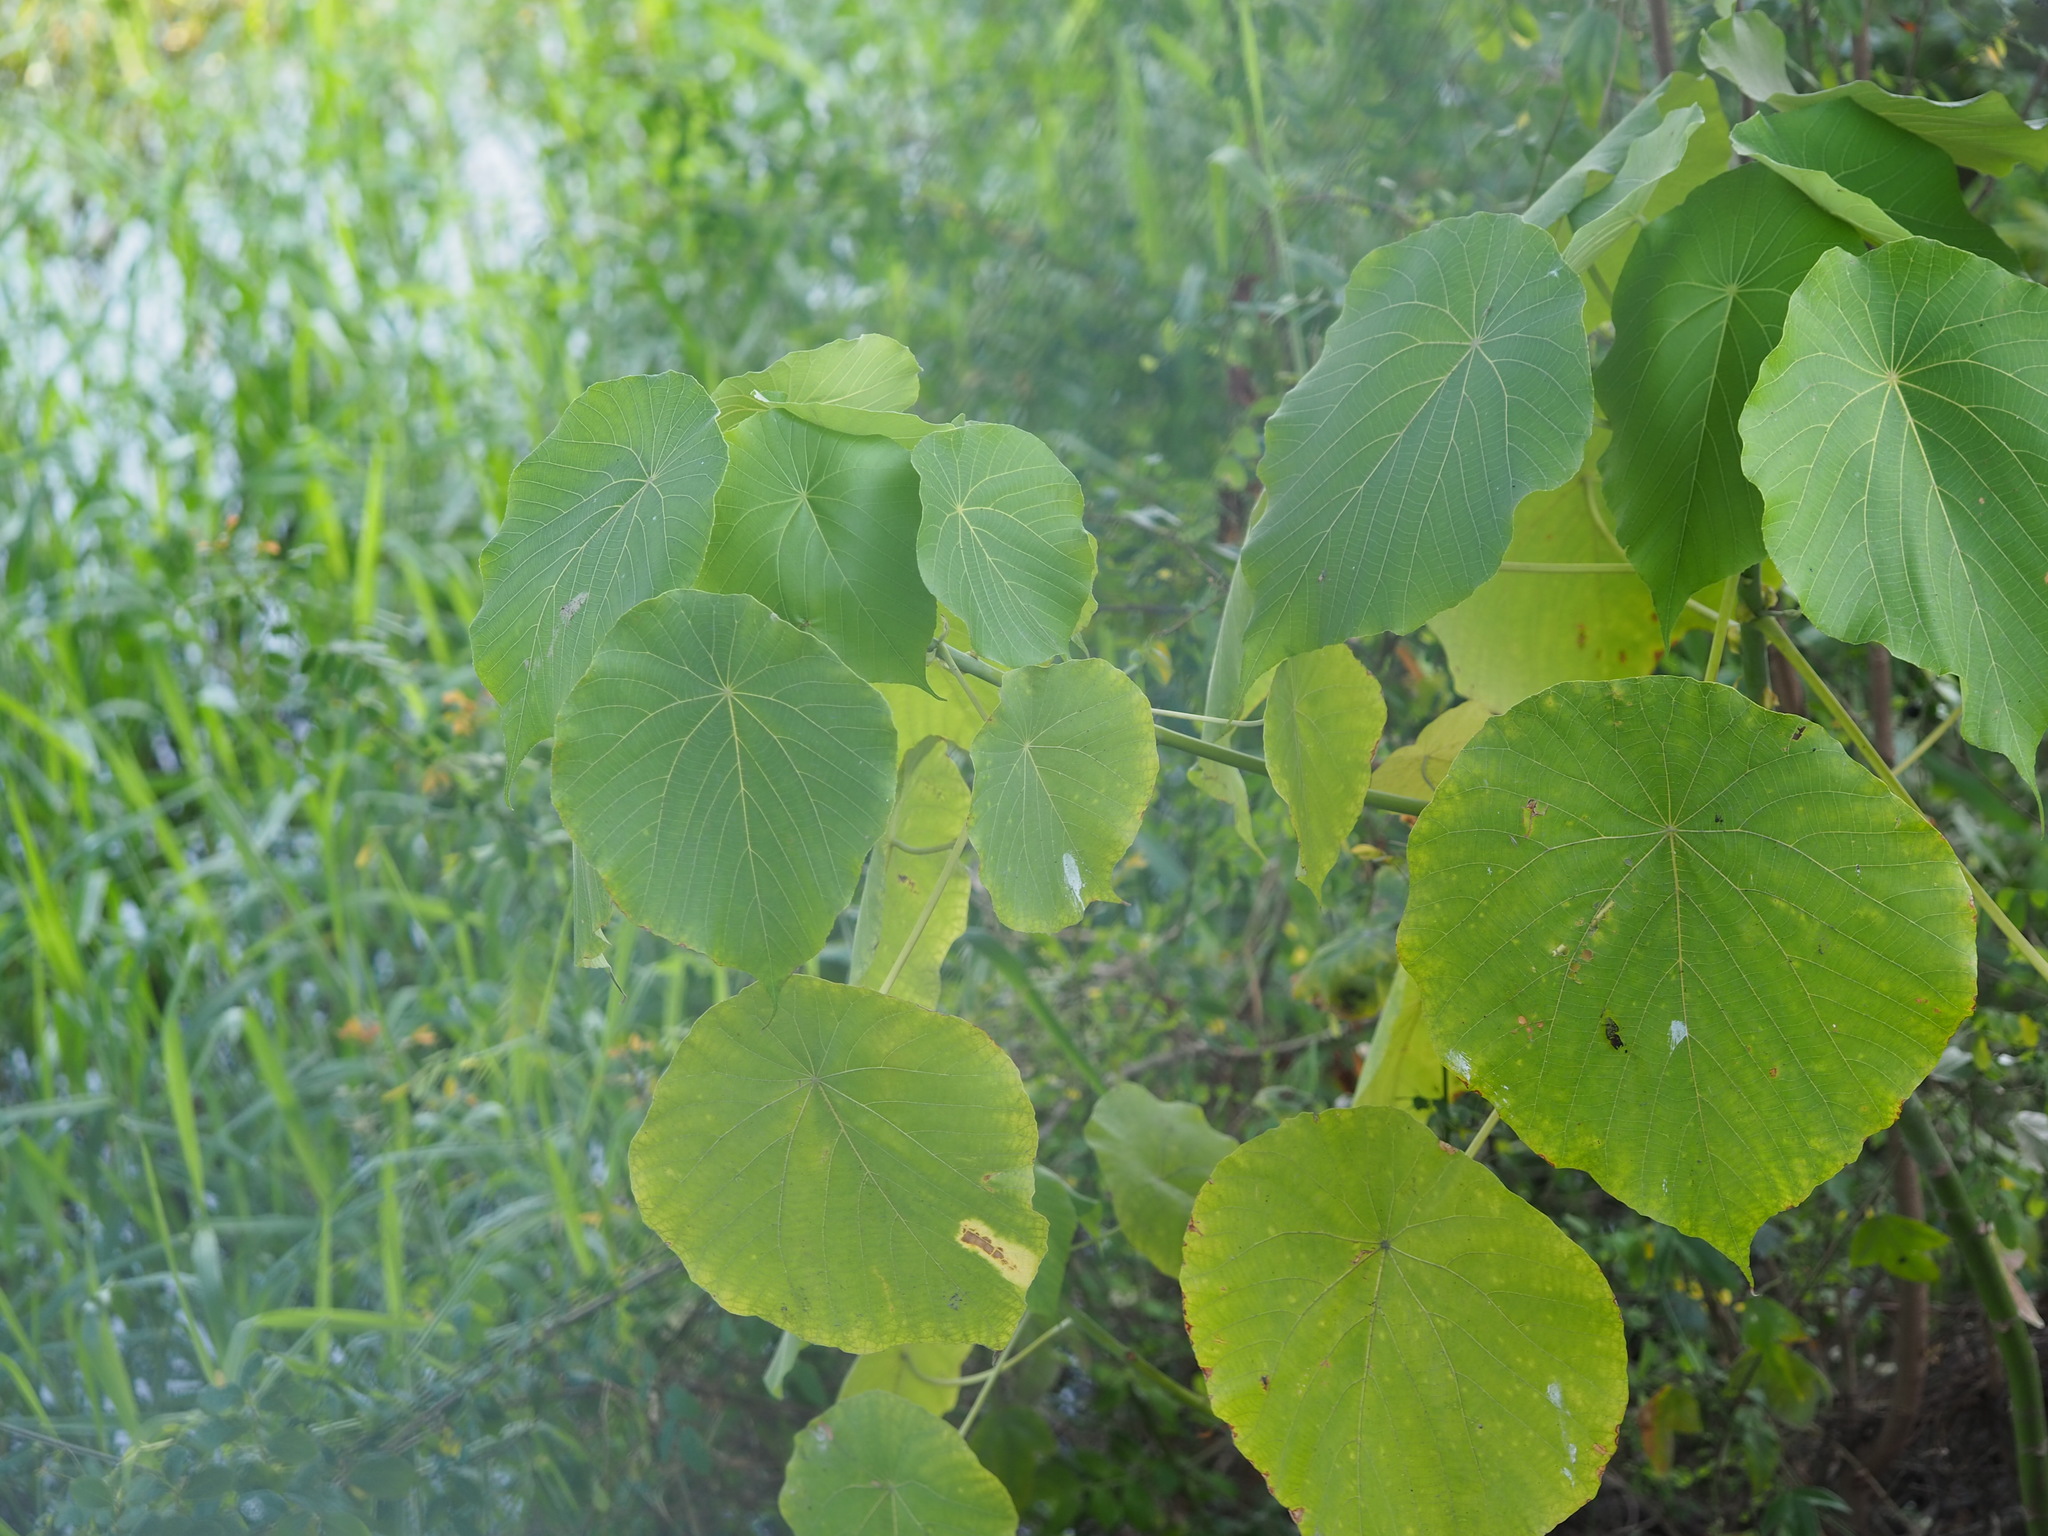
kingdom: Plantae
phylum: Tracheophyta
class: Magnoliopsida
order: Malpighiales
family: Euphorbiaceae
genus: Macaranga
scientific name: Macaranga tanarius
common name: Parasol leaf tree
